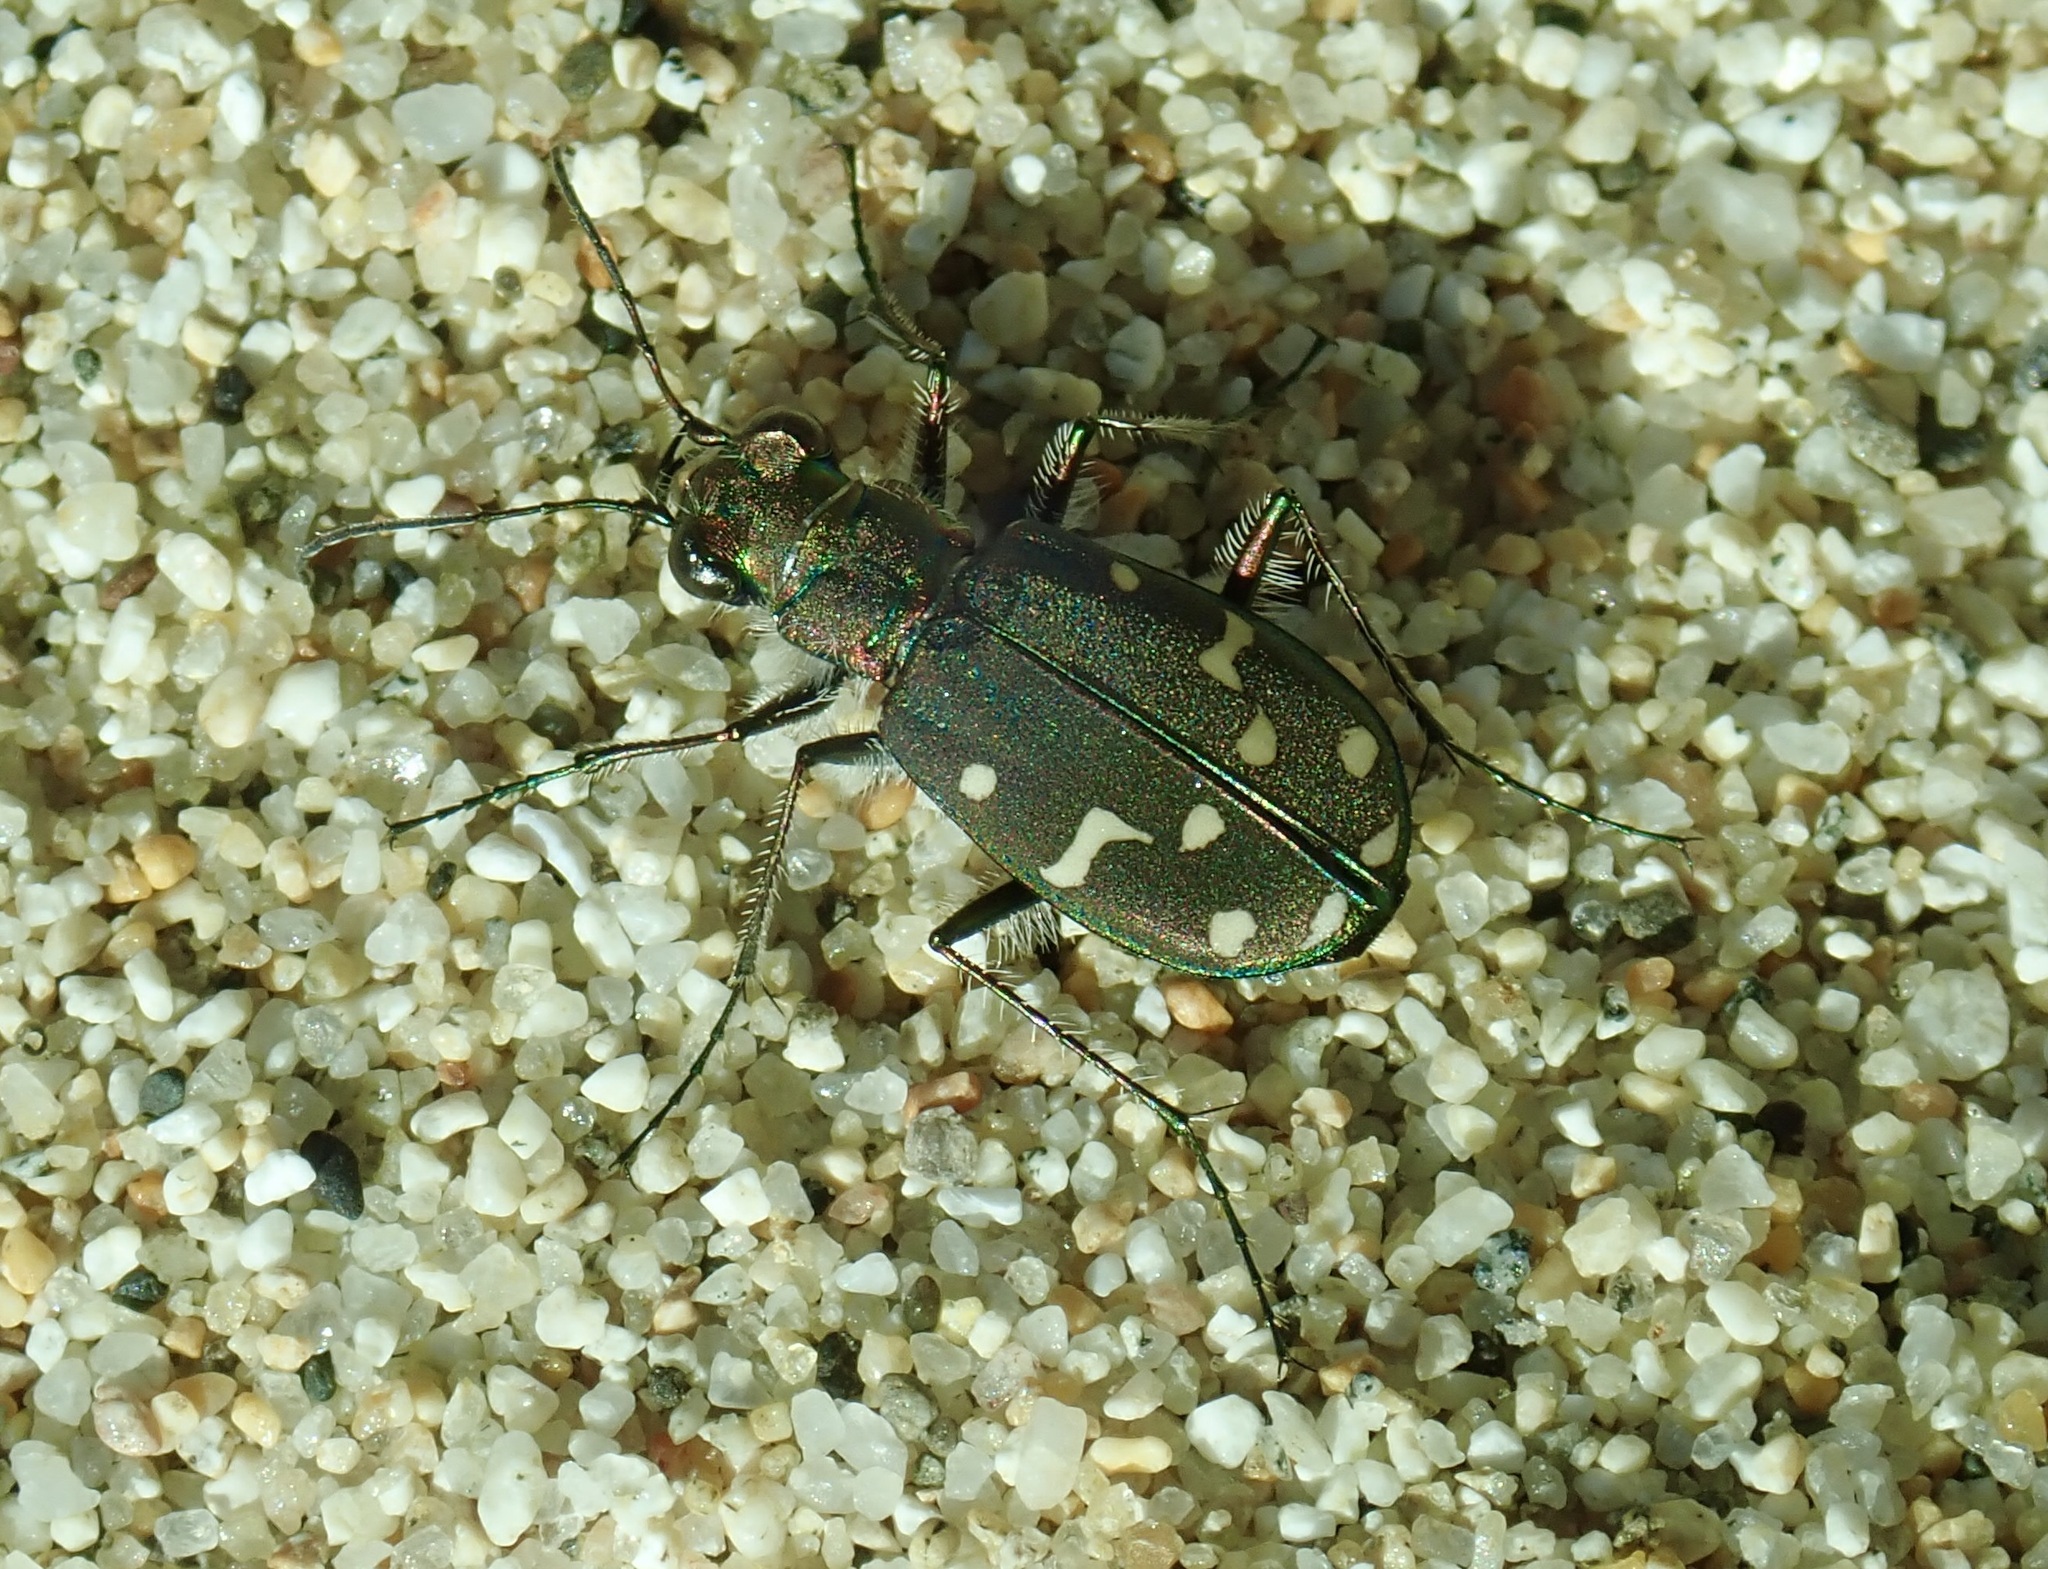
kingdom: Animalia
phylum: Arthropoda
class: Insecta
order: Coleoptera
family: Carabidae
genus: Cicindela
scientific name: Cicindela oregona
